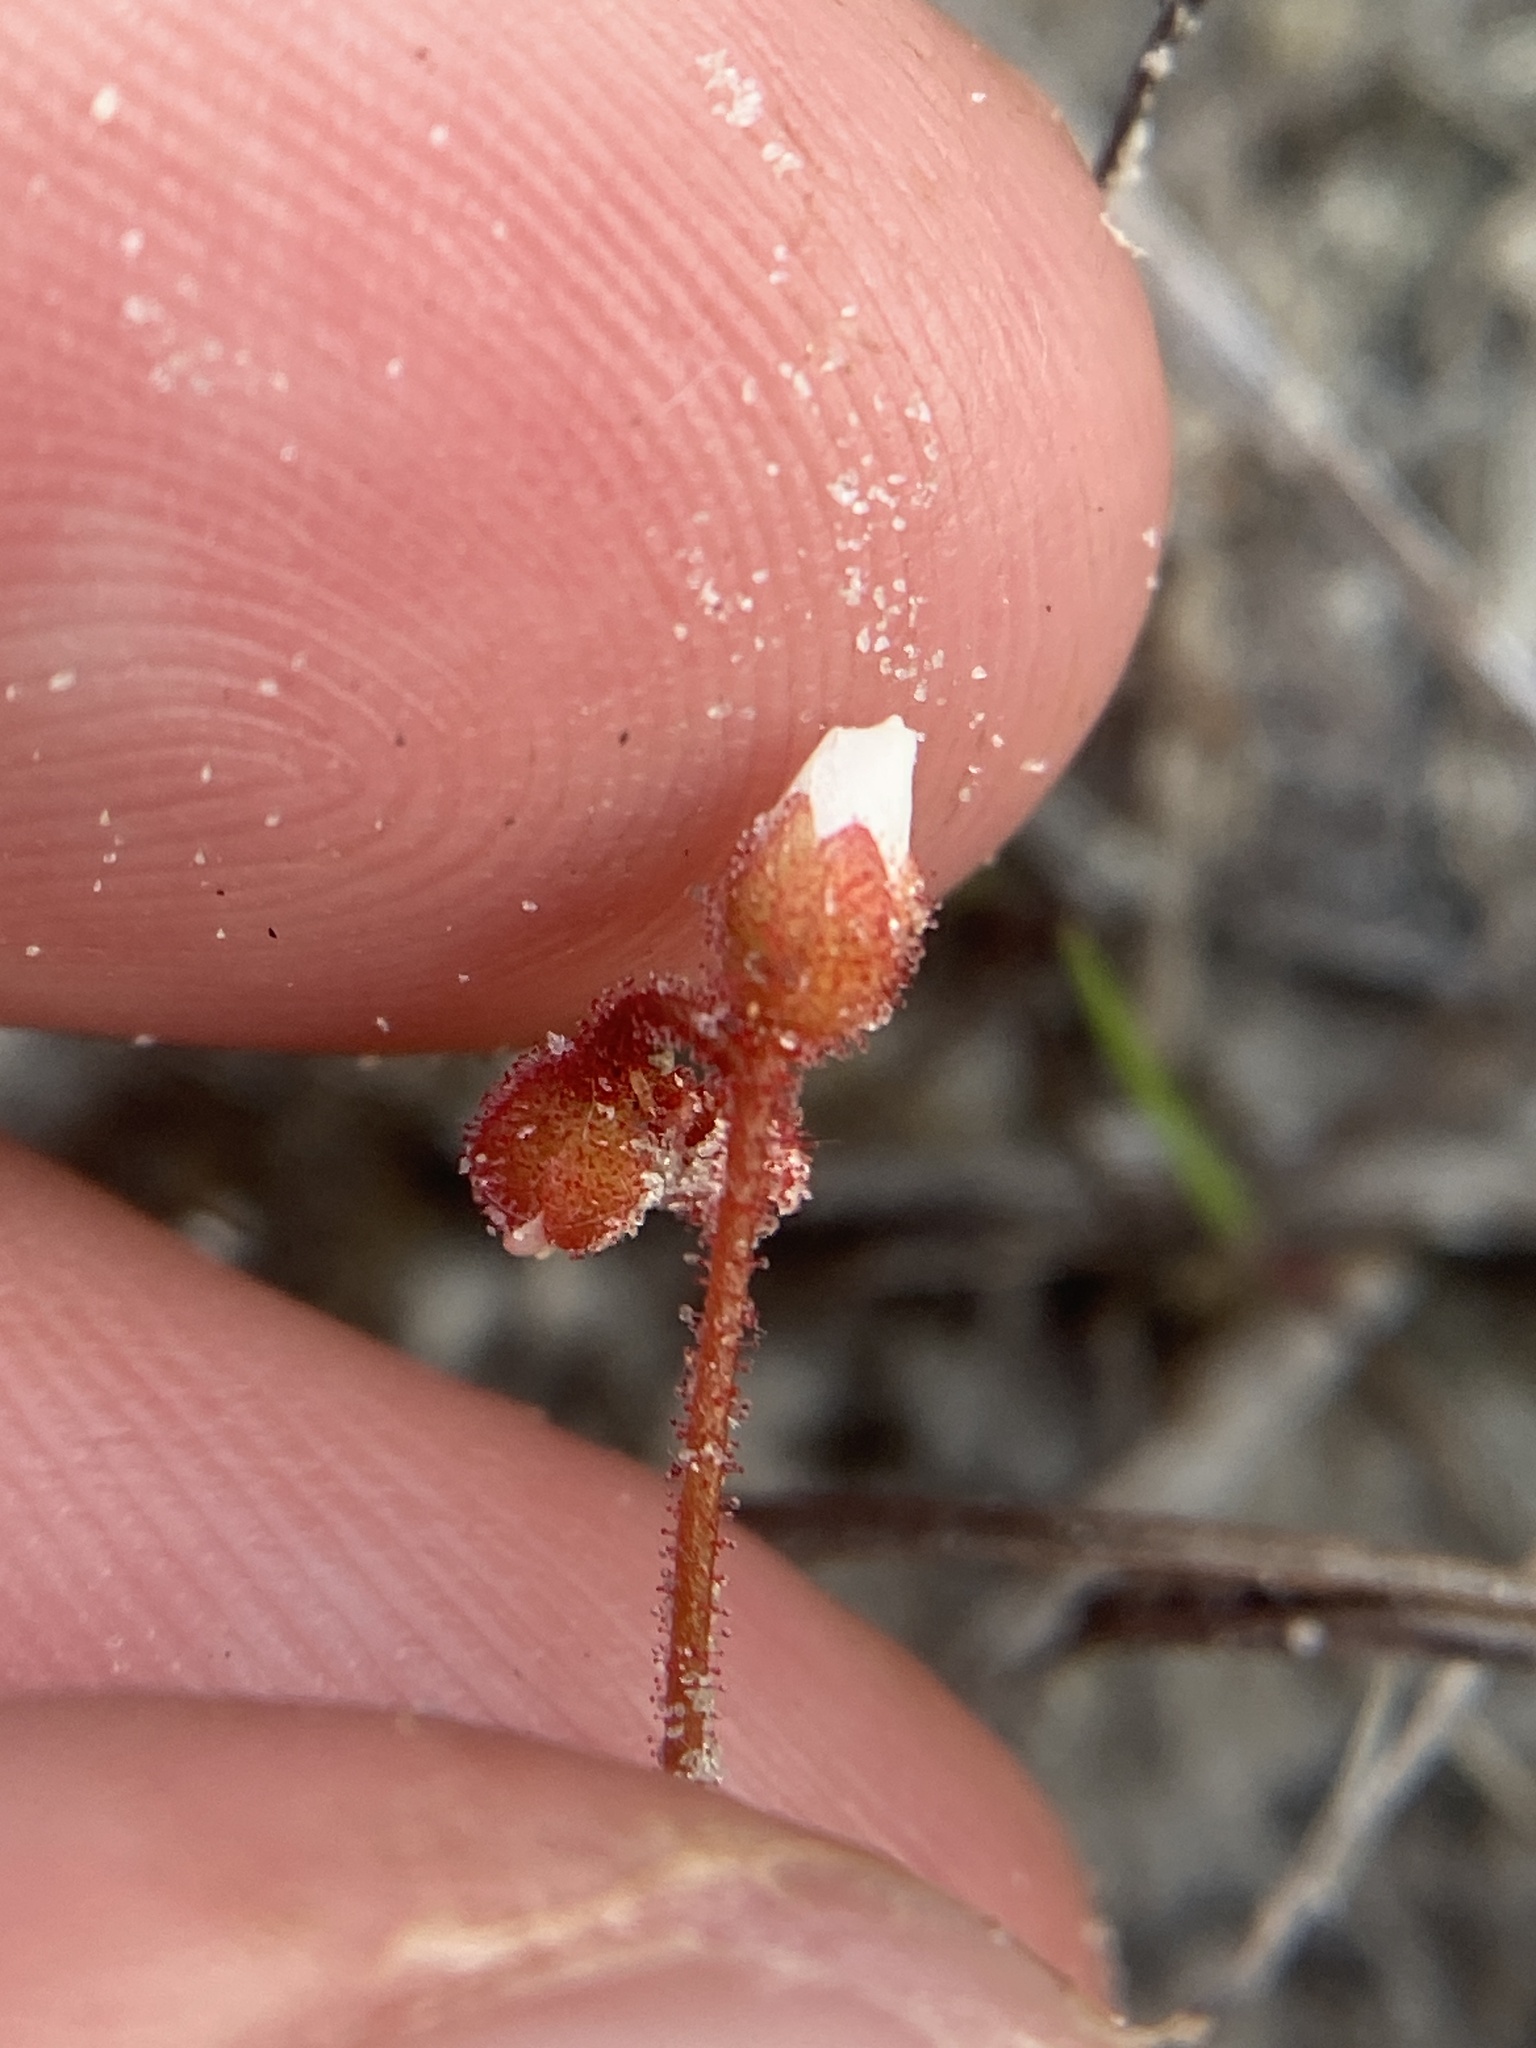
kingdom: Plantae
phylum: Tracheophyta
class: Magnoliopsida
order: Caryophyllales
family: Droseraceae
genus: Drosera
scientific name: Drosera brevifolia
